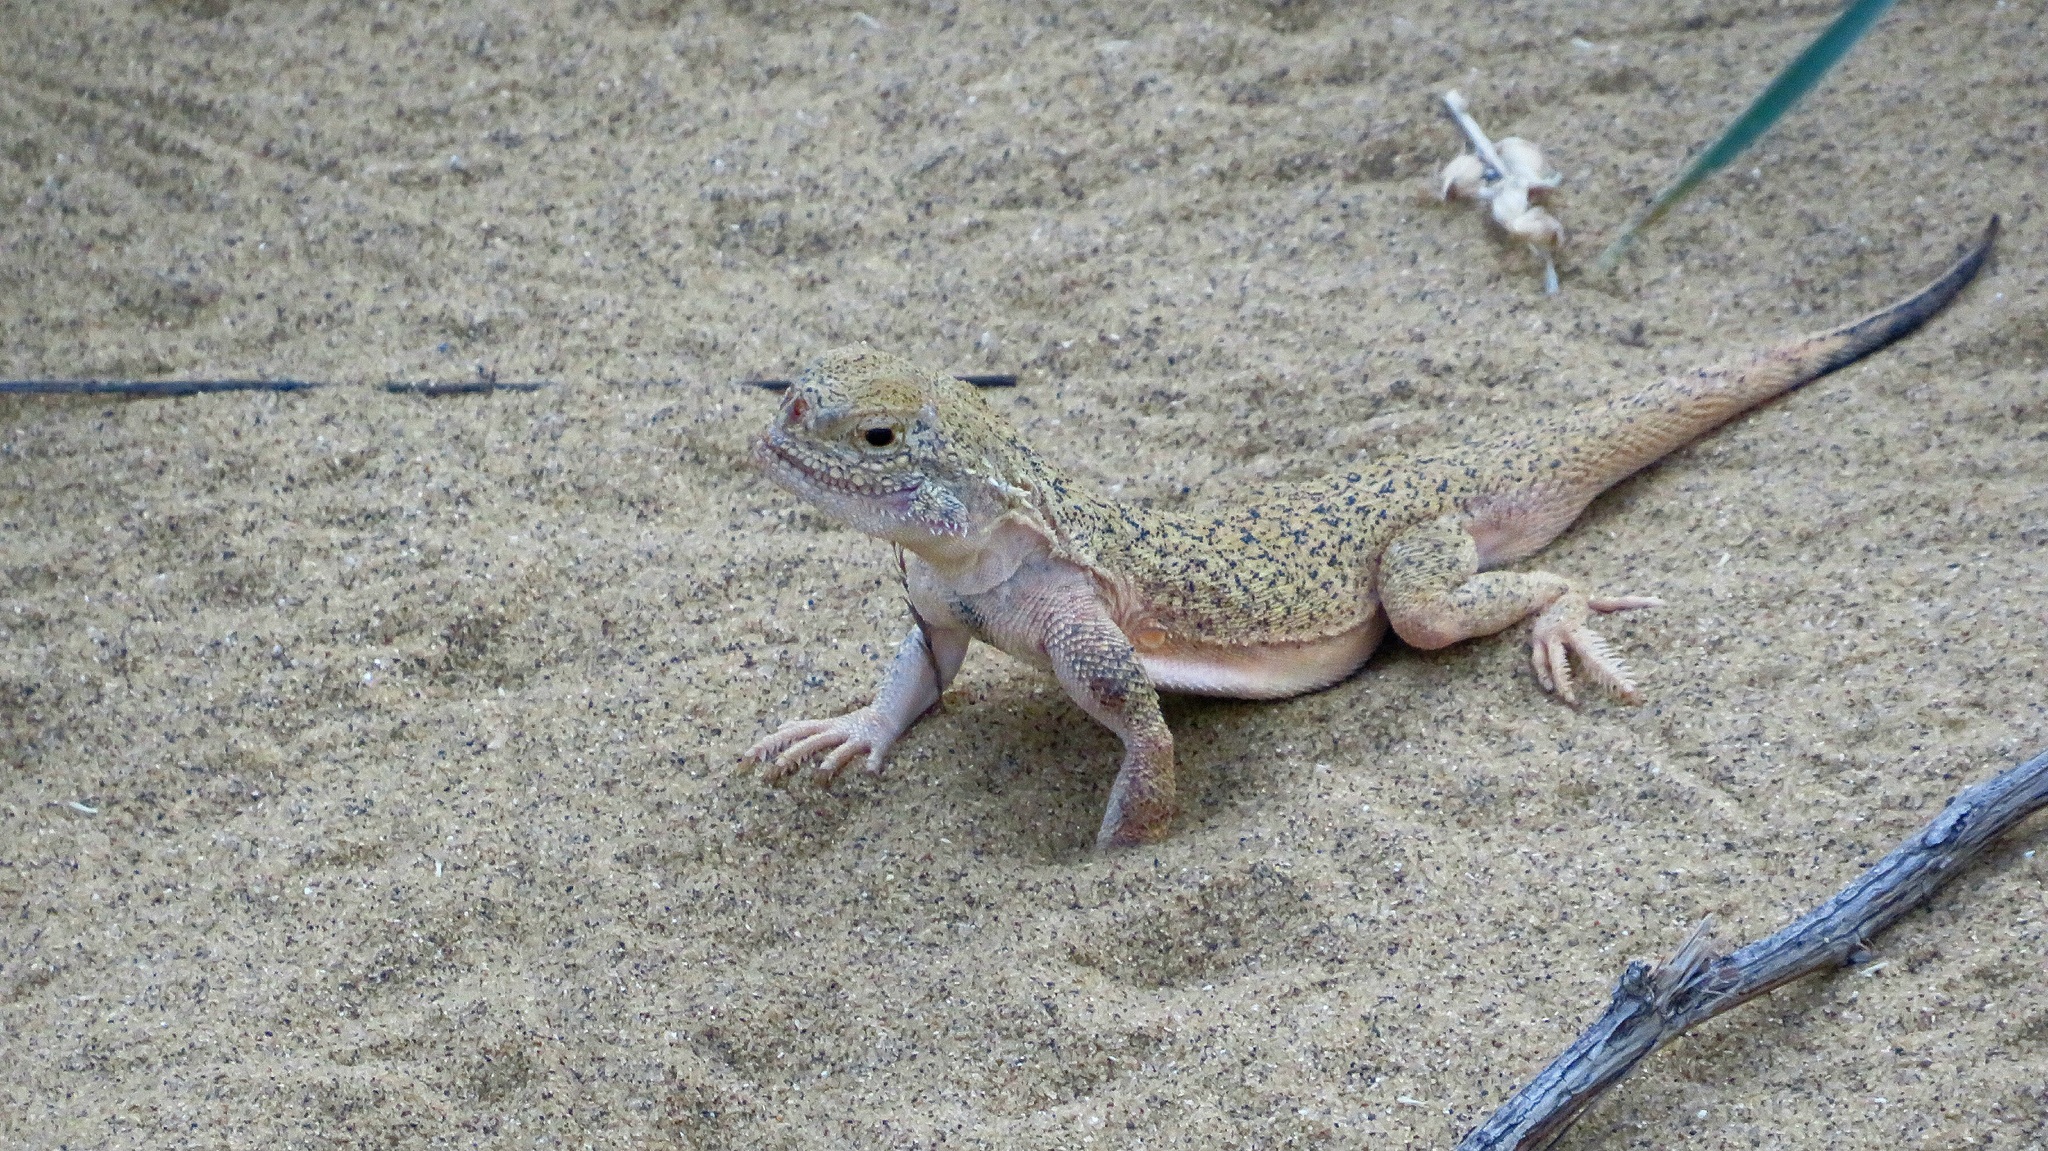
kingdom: Animalia
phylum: Chordata
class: Squamata
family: Agamidae
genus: Phrynocephalus
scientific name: Phrynocephalus mystaceus
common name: Secret toadhead agama
